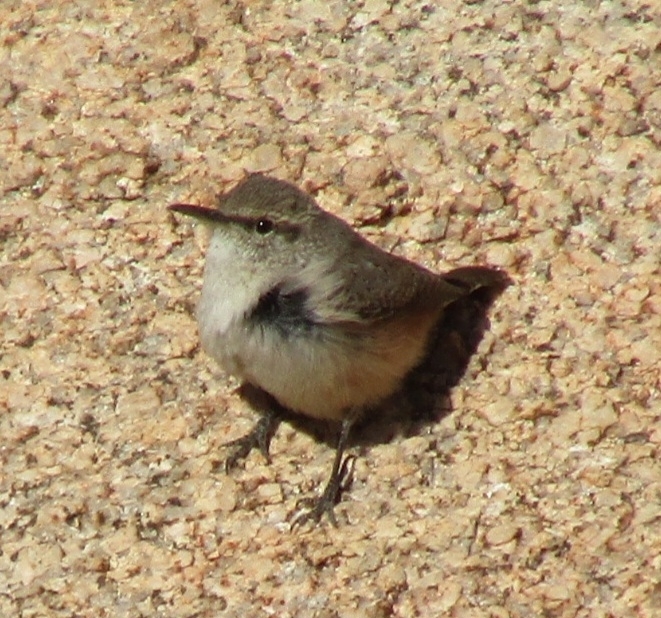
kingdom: Animalia
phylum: Chordata
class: Aves
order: Passeriformes
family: Troglodytidae
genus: Salpinctes
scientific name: Salpinctes obsoletus
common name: Rock wren
